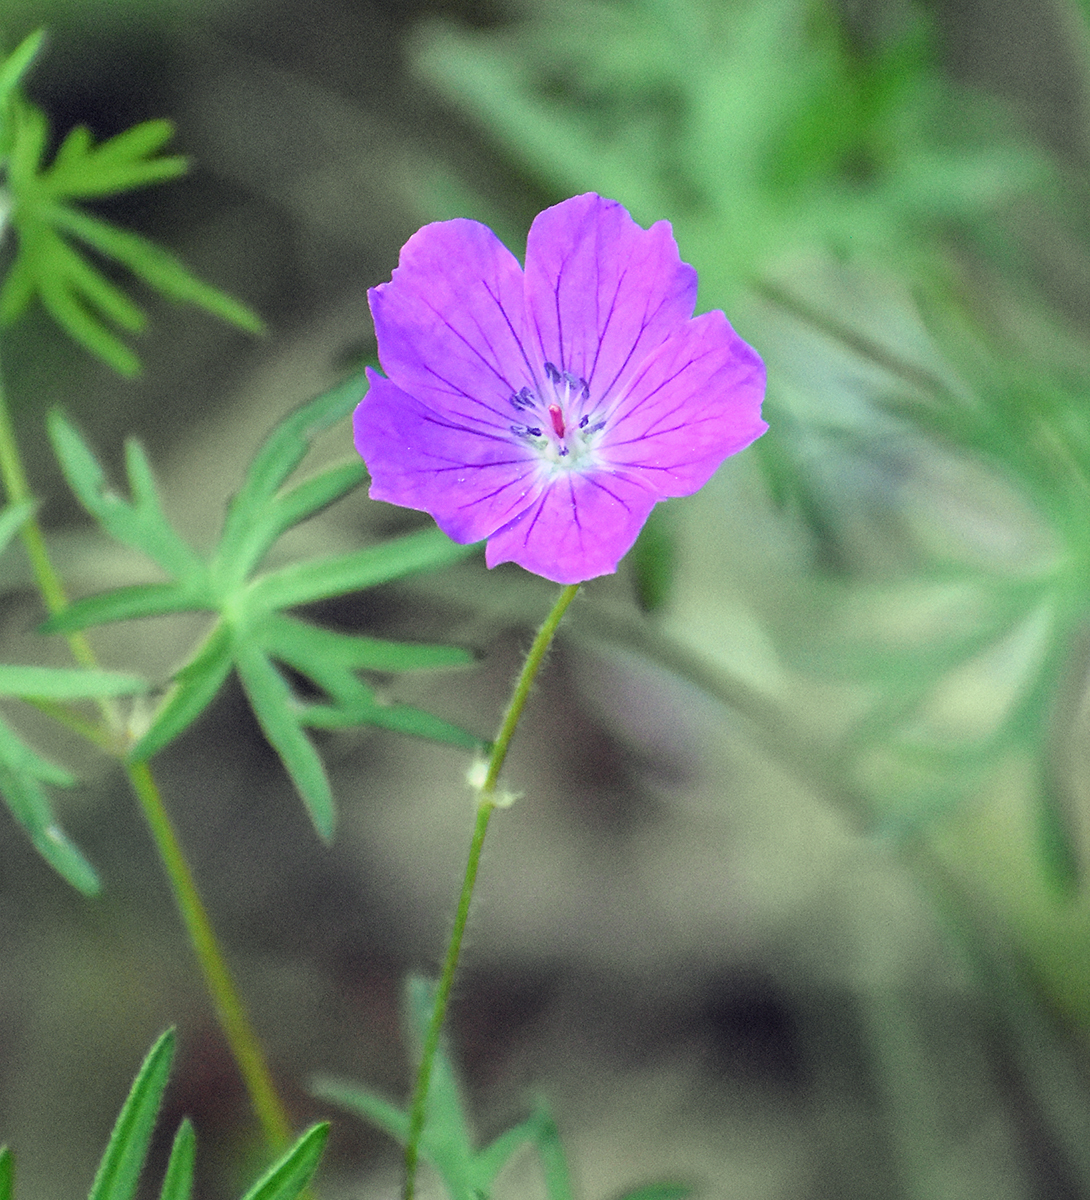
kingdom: Plantae
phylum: Tracheophyta
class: Magnoliopsida
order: Geraniales
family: Geraniaceae
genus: Geranium
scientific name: Geranium sanguineum
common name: Bloody crane's-bill
